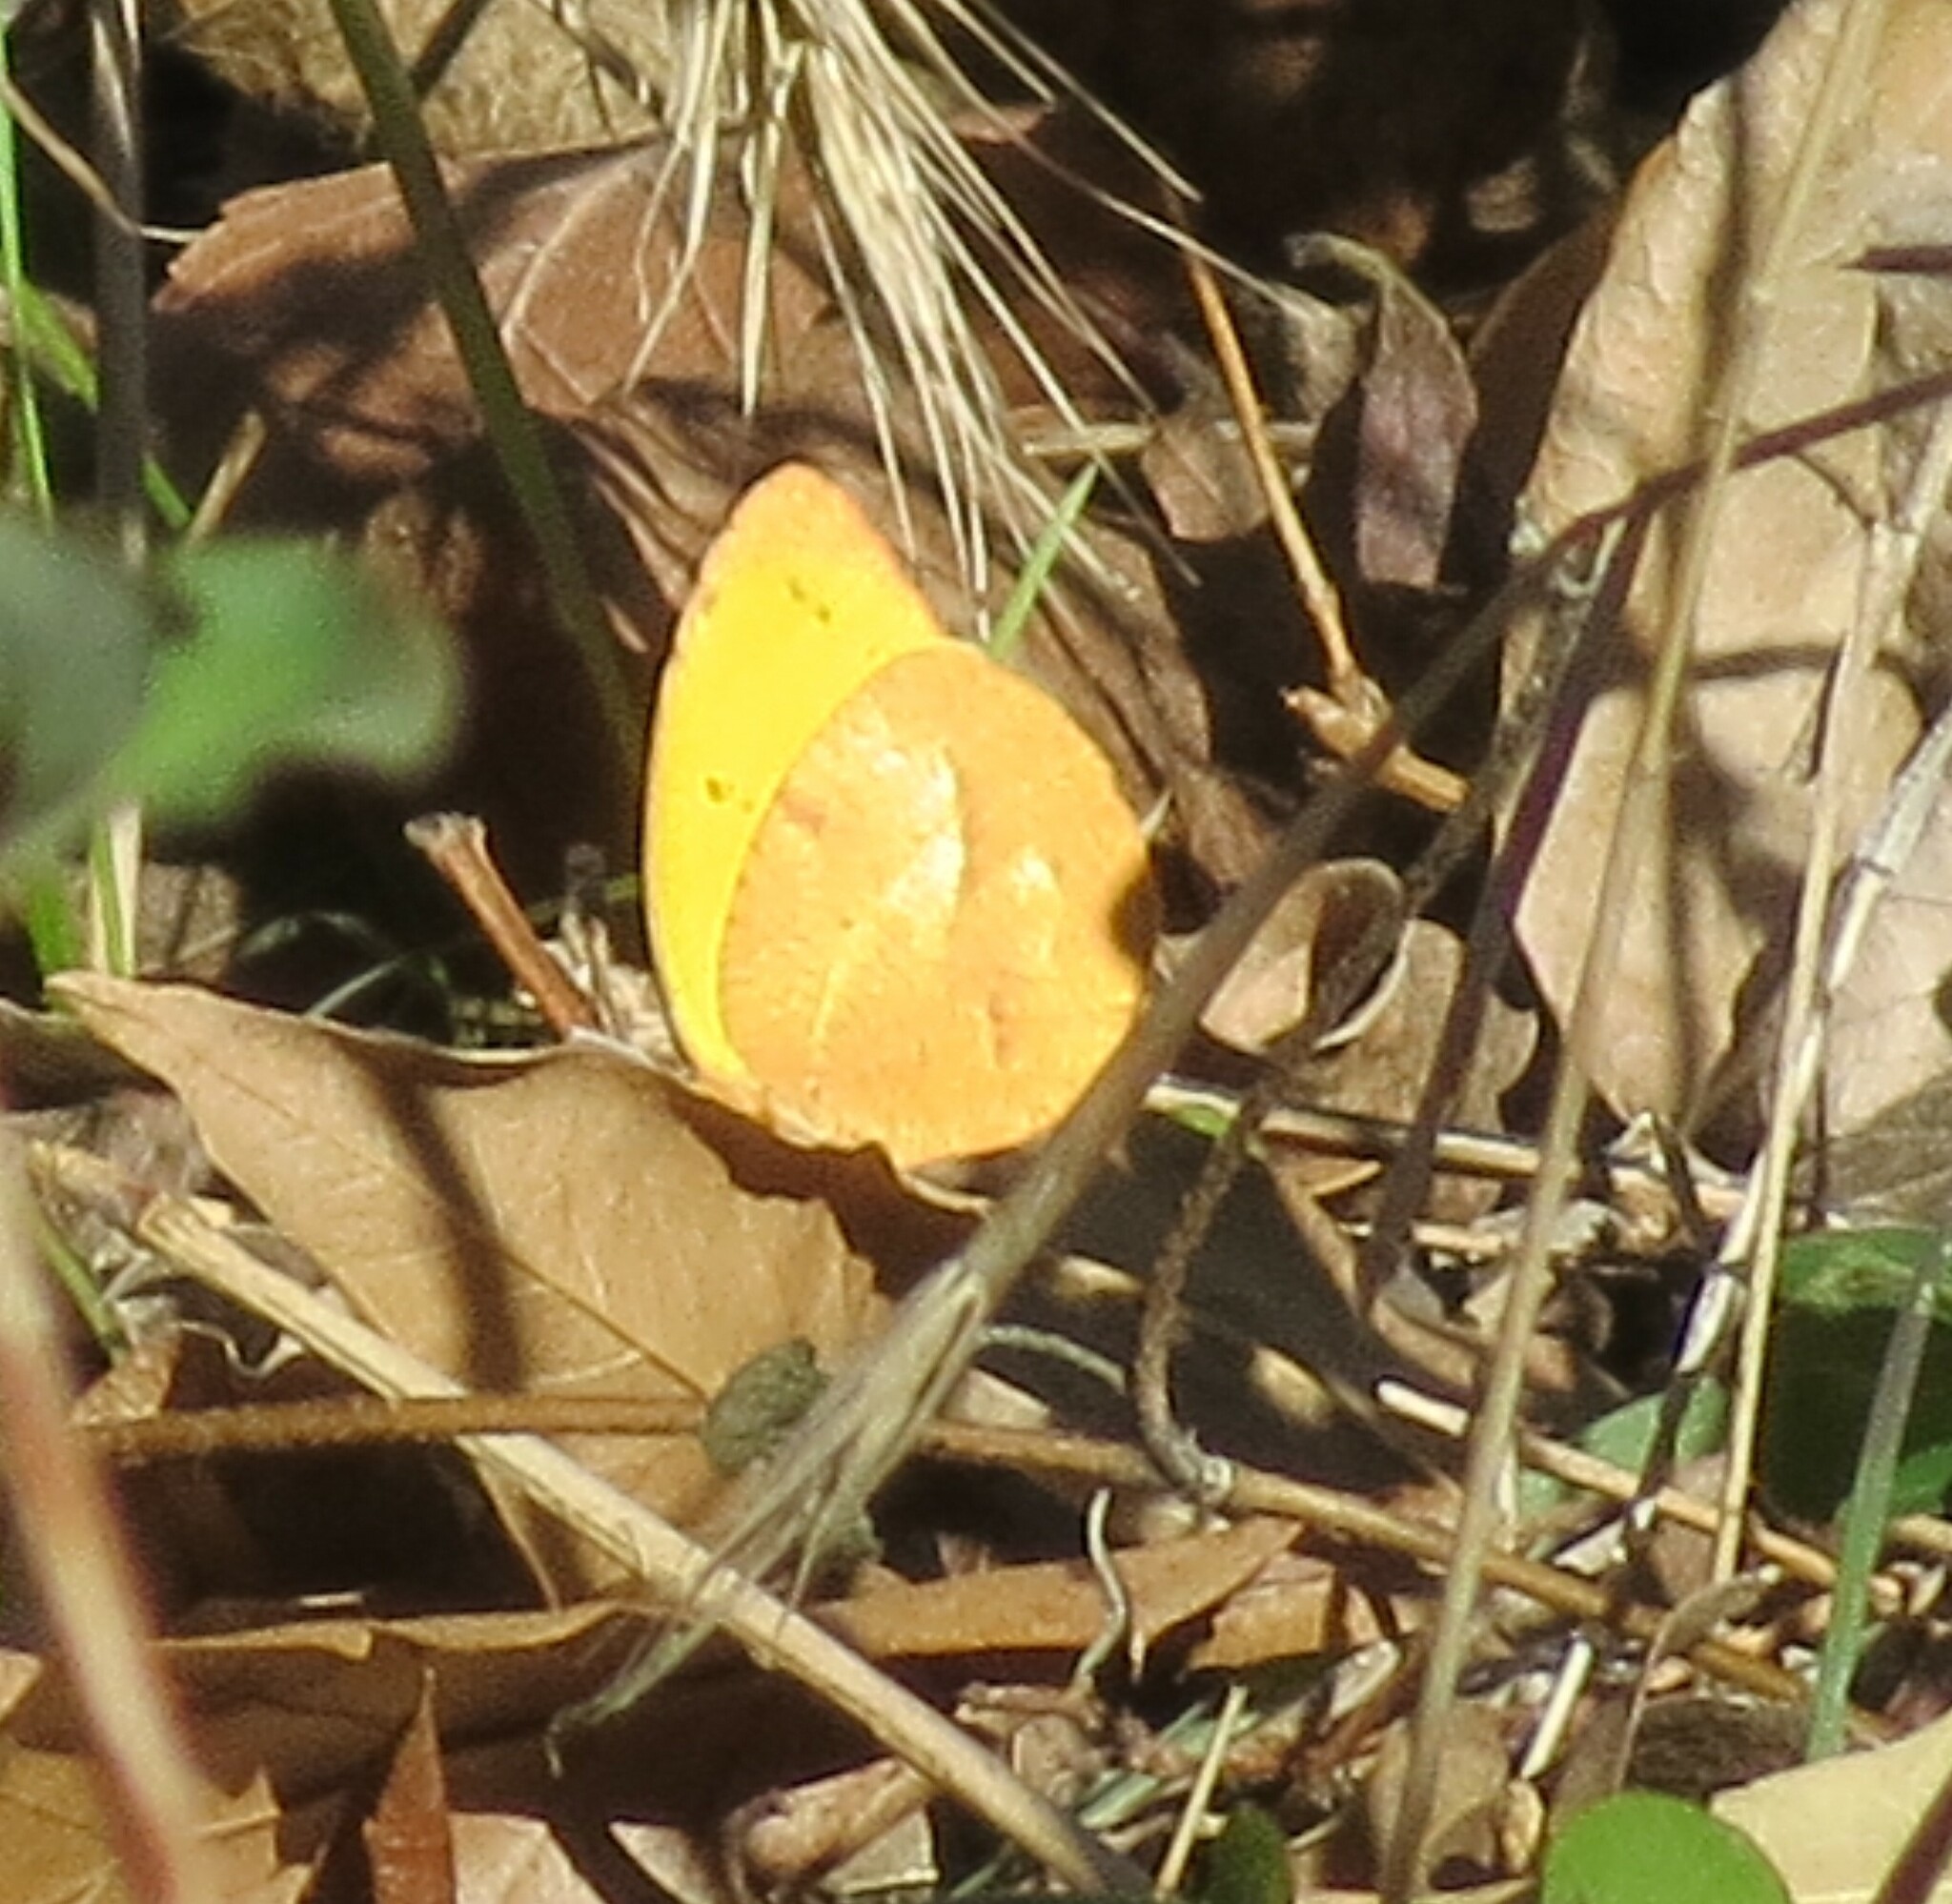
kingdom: Animalia
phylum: Arthropoda
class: Insecta
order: Lepidoptera
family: Pieridae
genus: Abaeis
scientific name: Abaeis nicippe
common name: Sleepy orange
